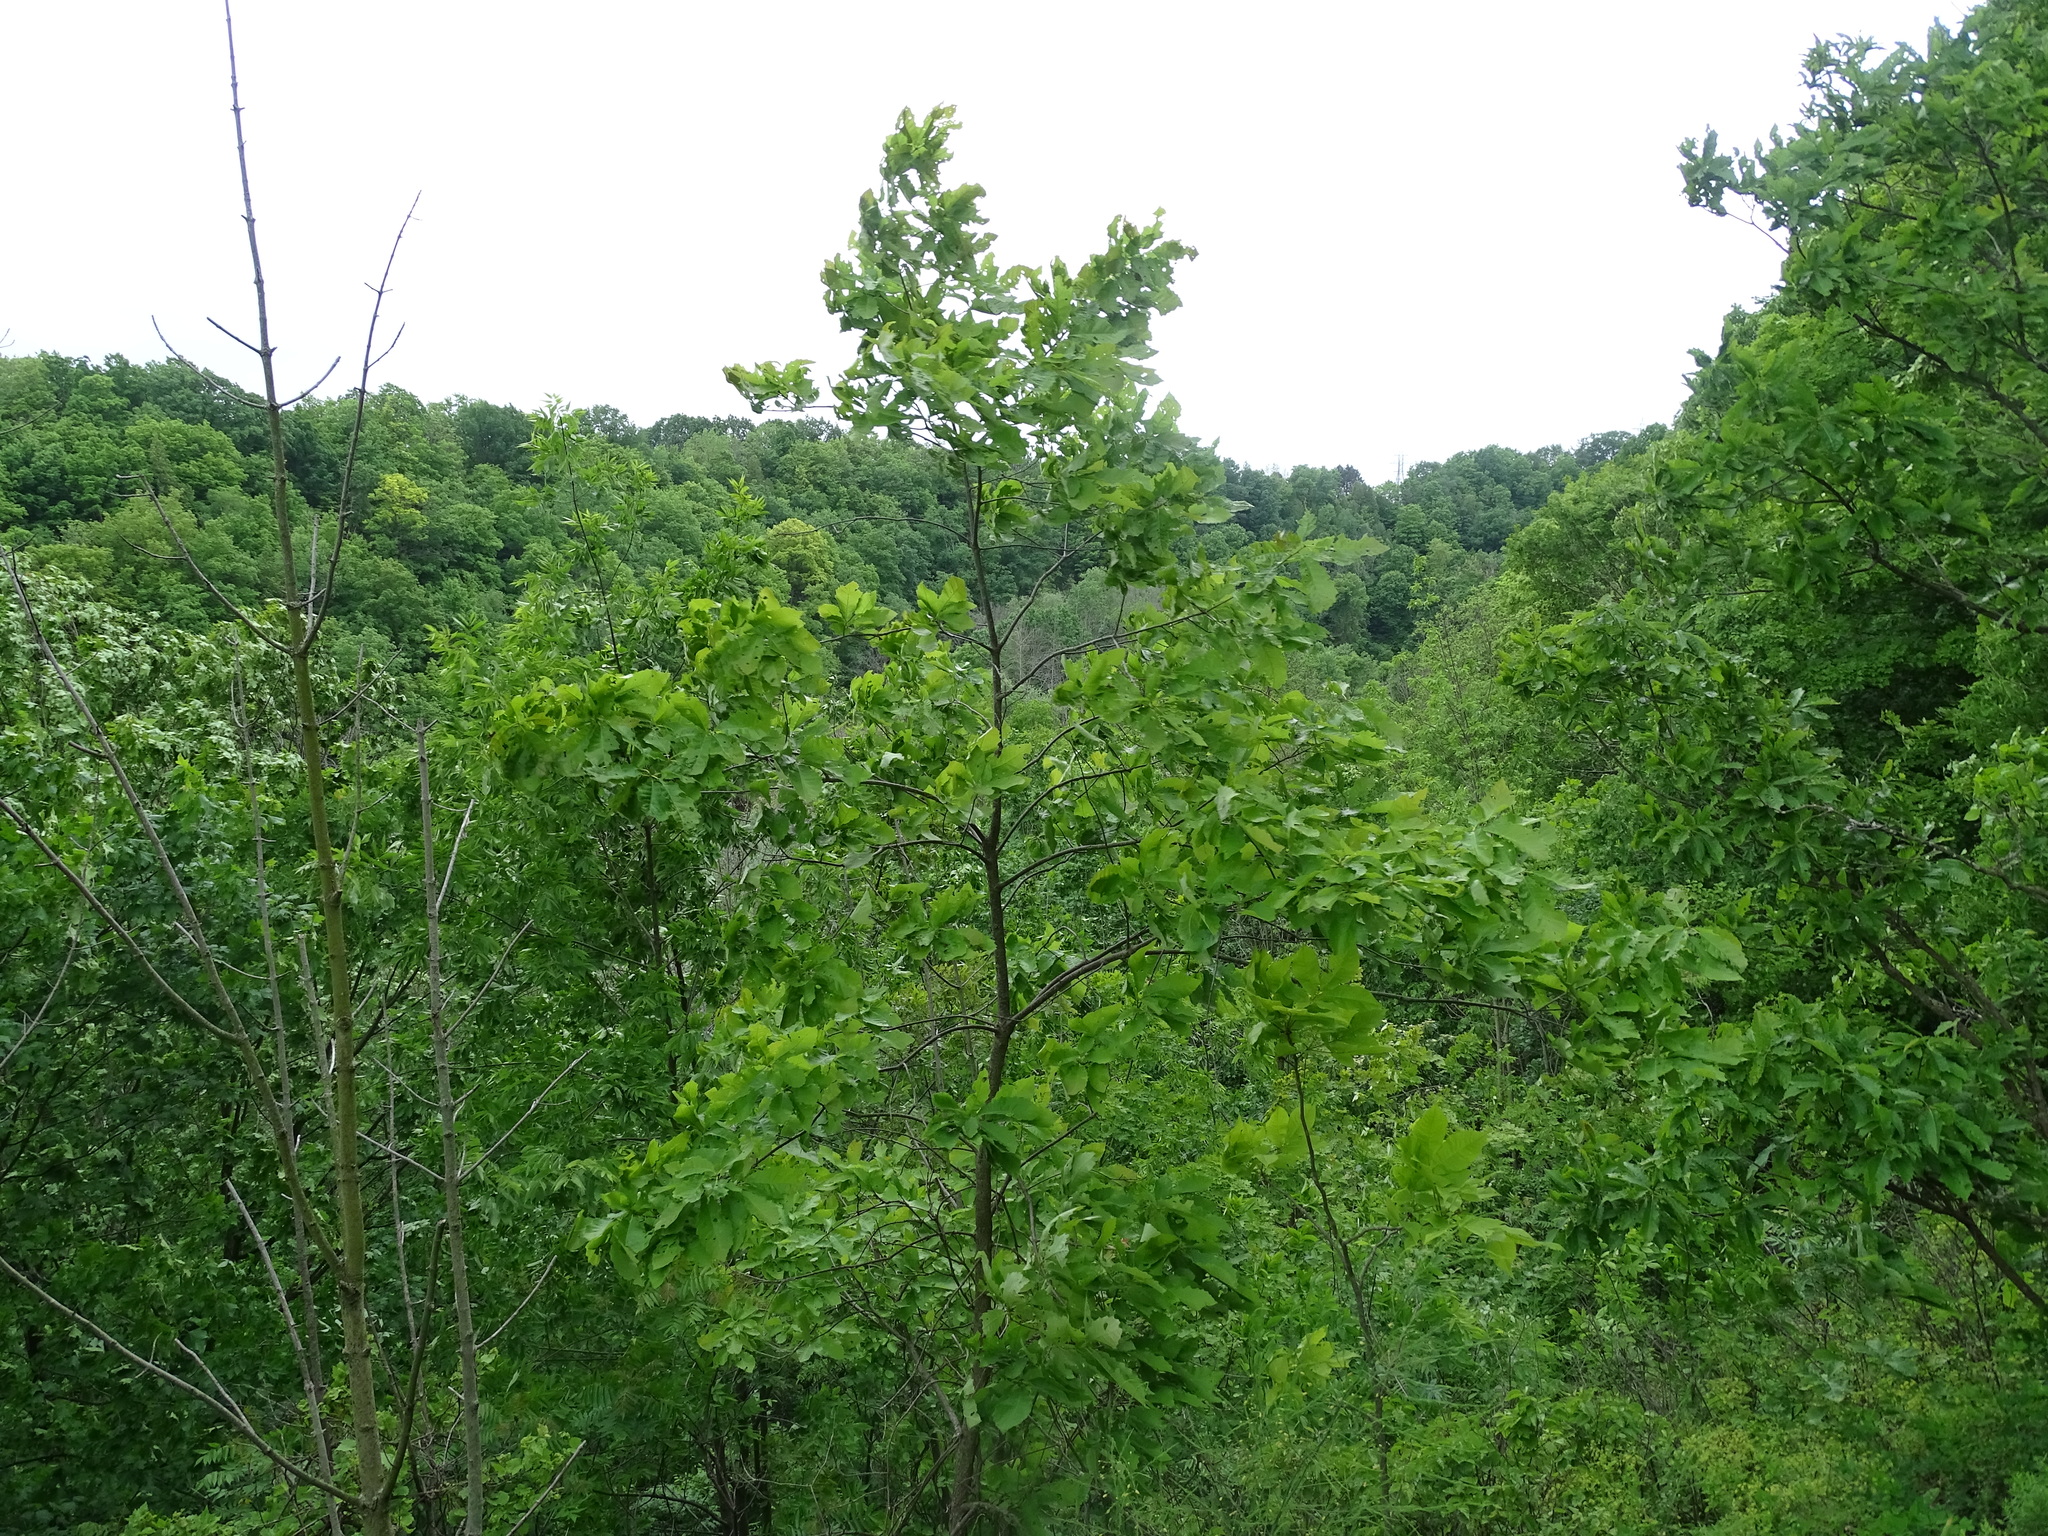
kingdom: Plantae
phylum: Tracheophyta
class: Magnoliopsida
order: Fagales
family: Fagaceae
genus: Quercus
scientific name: Quercus muehlenbergii
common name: Chinkapin oak
